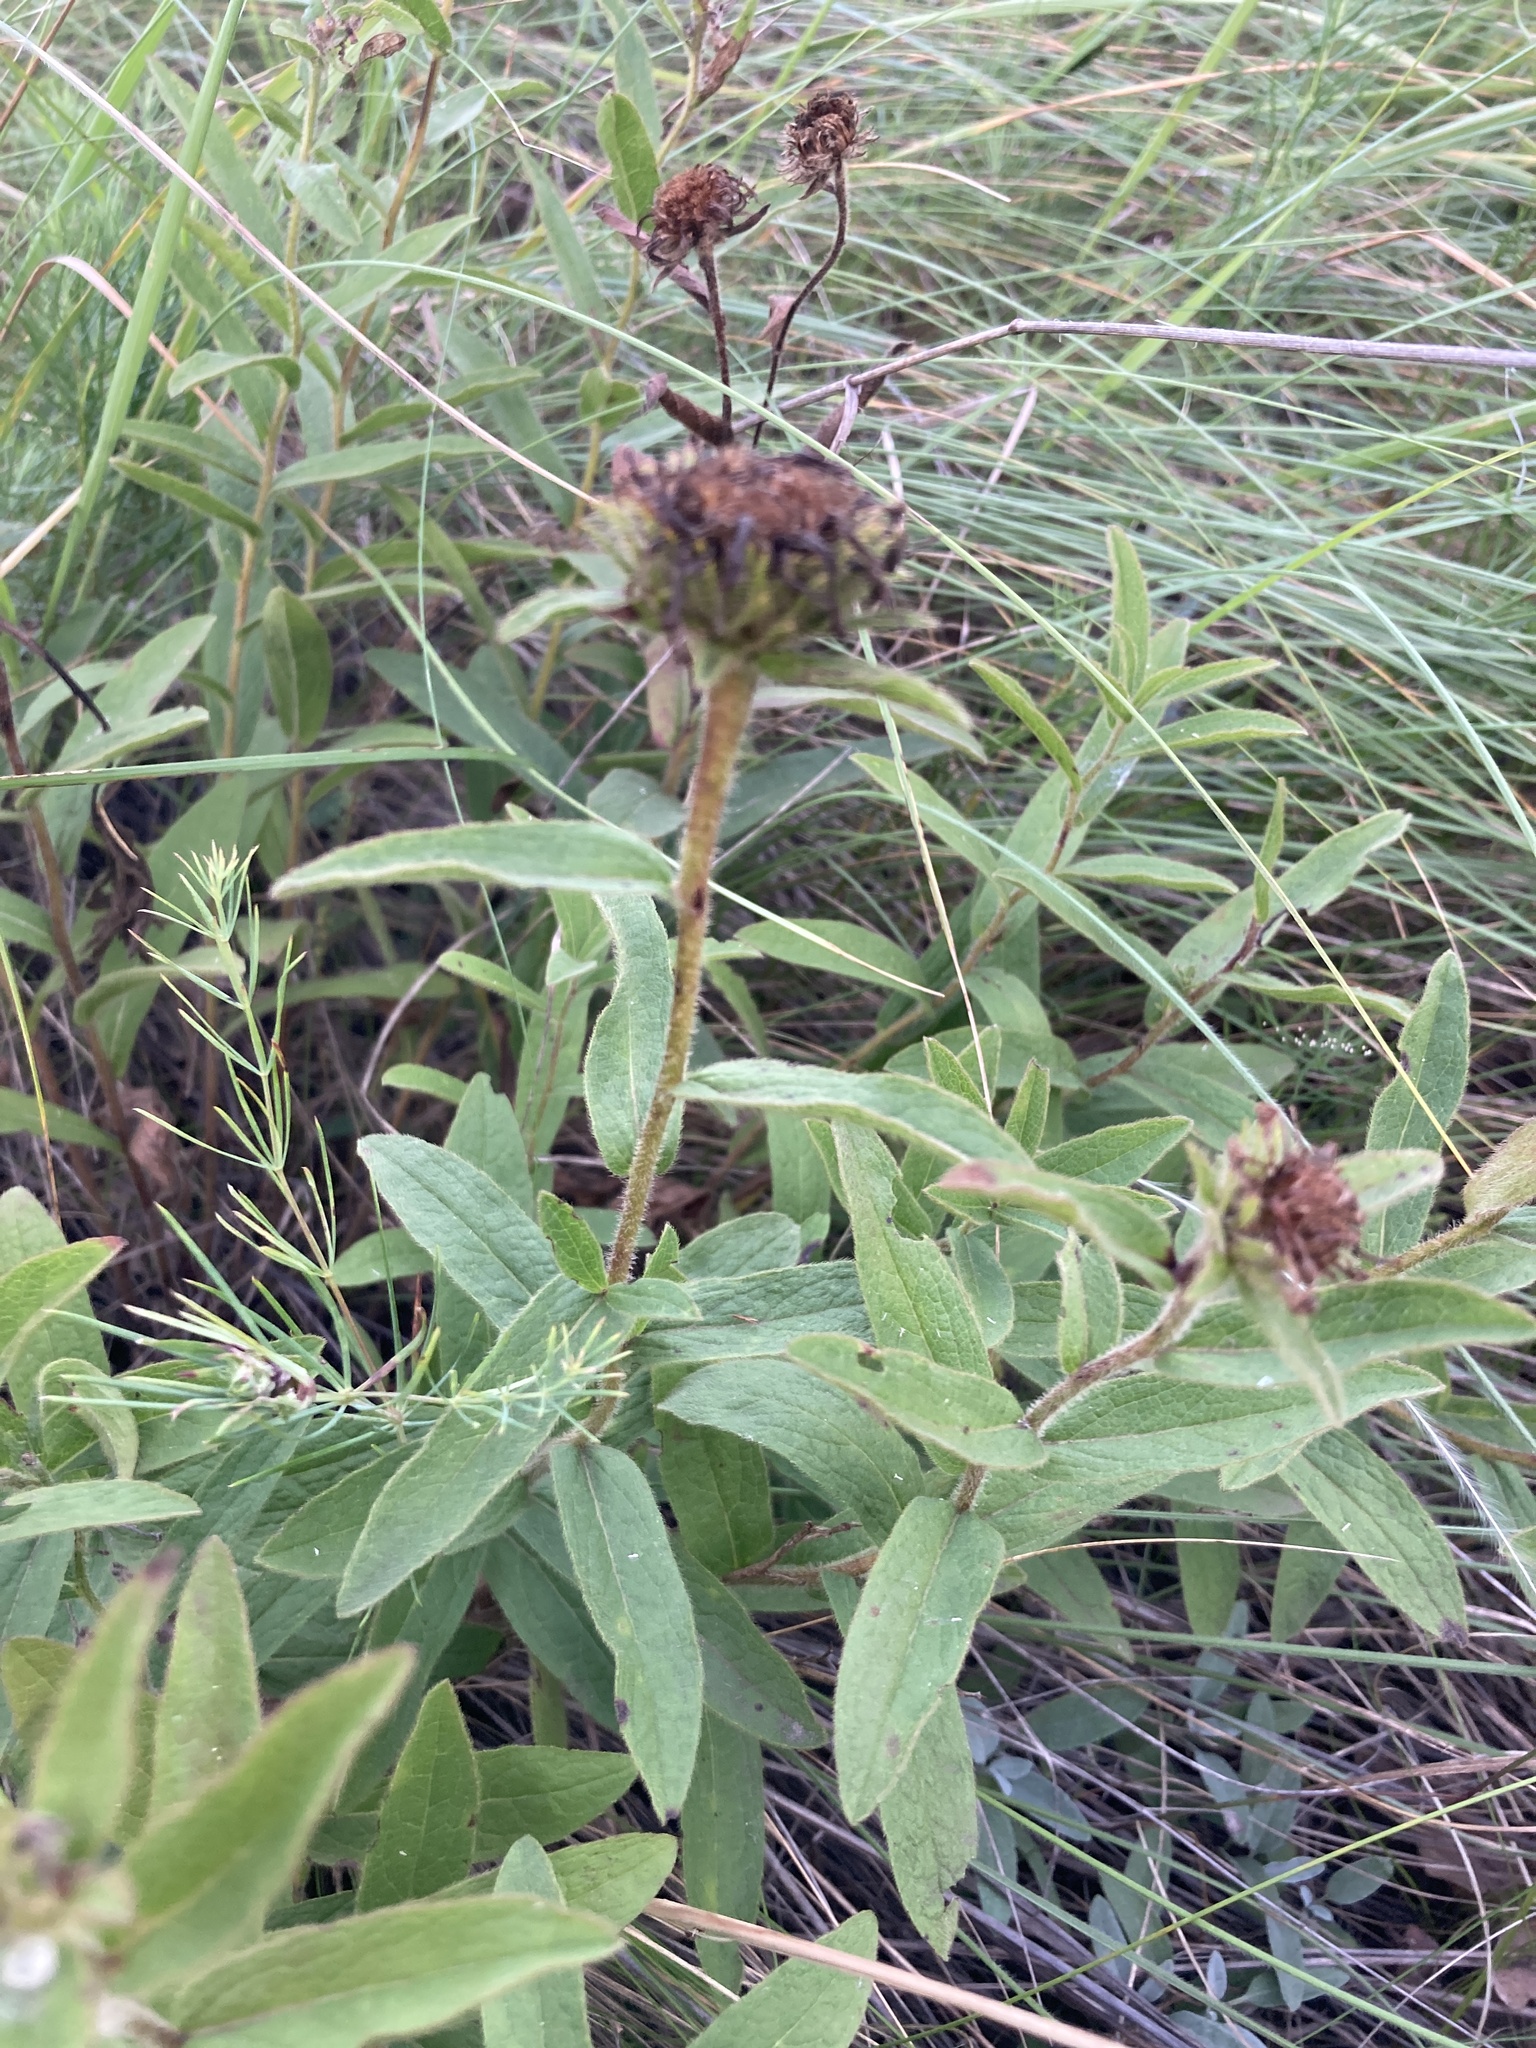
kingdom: Plantae
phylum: Tracheophyta
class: Magnoliopsida
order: Asterales
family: Asteraceae
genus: Pentanema
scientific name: Pentanema hirtum
